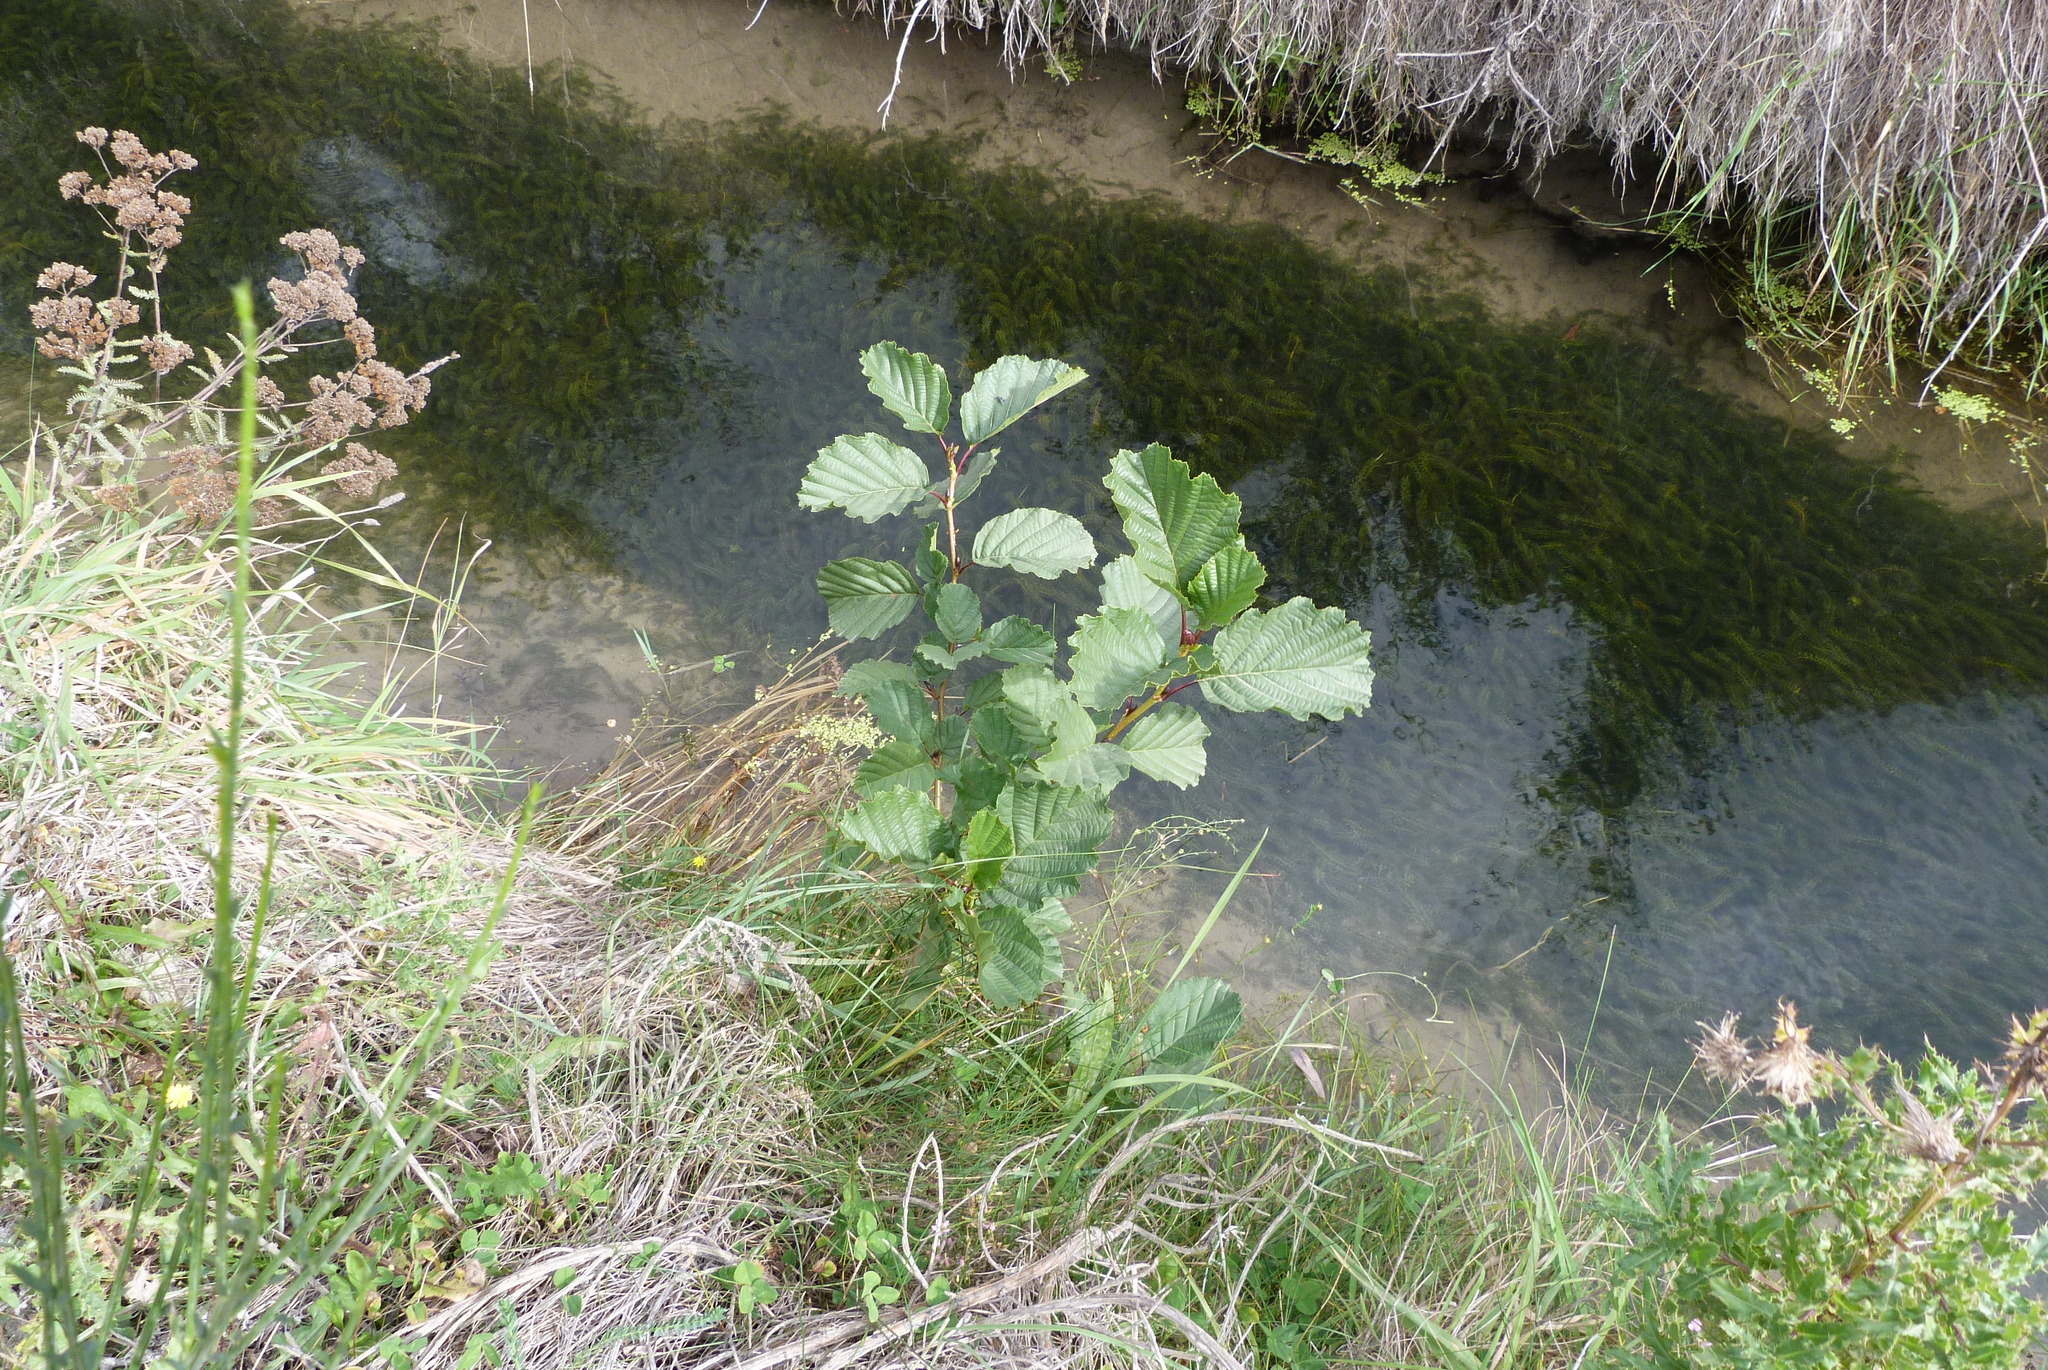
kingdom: Plantae
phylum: Tracheophyta
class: Magnoliopsida
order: Fagales
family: Betulaceae
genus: Alnus
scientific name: Alnus glutinosa
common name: Black alder
